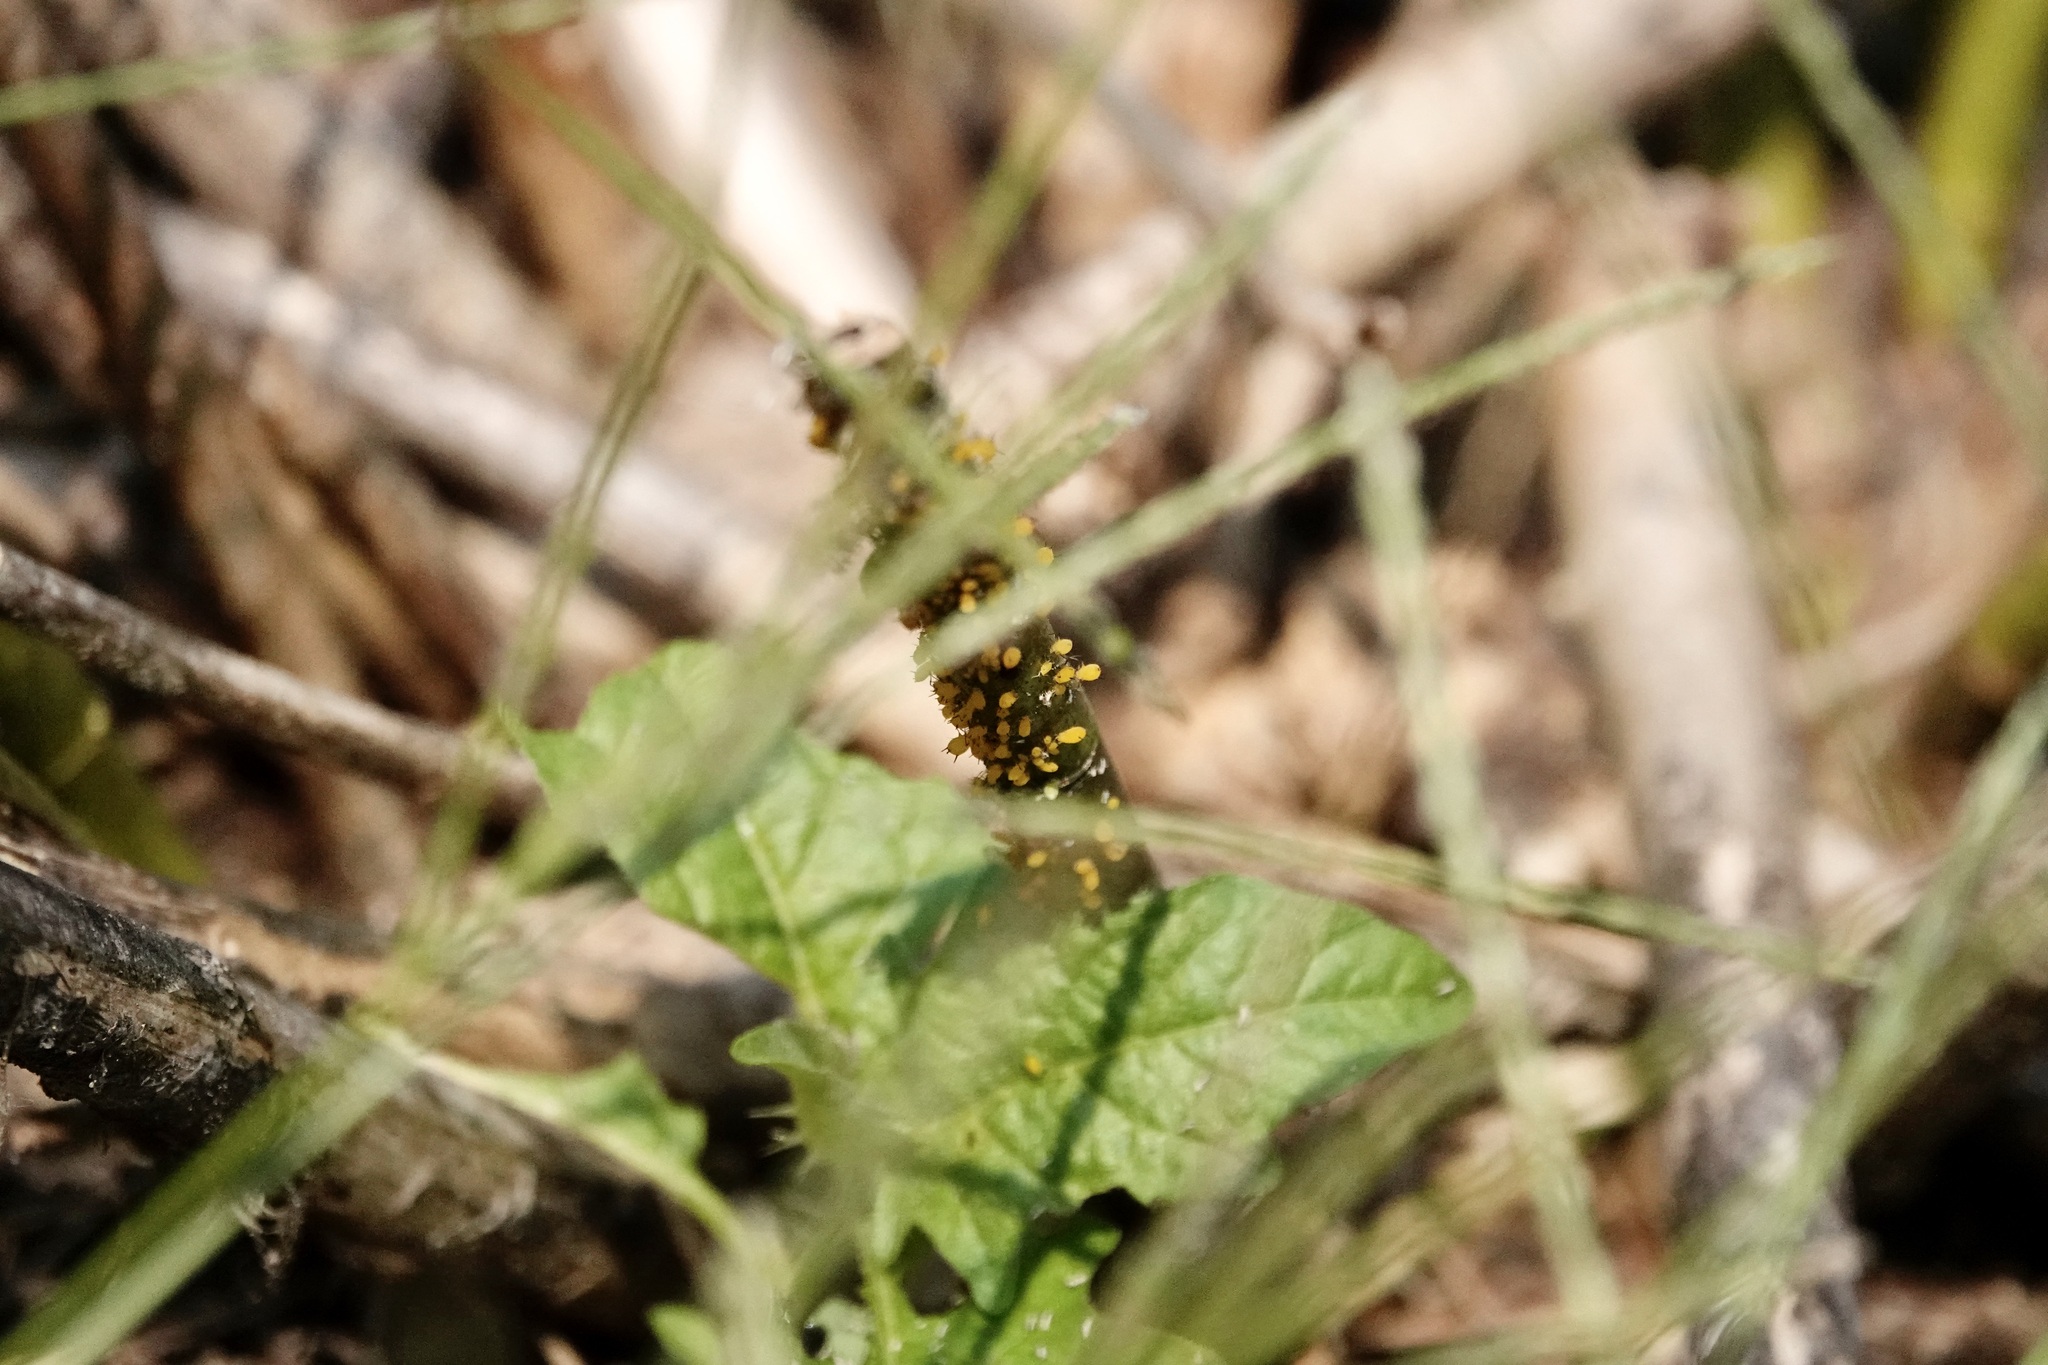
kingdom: Animalia
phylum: Arthropoda
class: Insecta
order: Hemiptera
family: Aphididae
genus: Aphis
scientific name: Aphis nerii
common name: Oleander aphid
